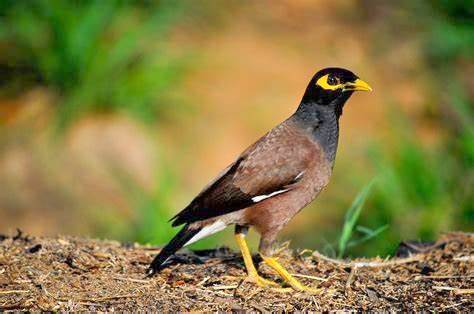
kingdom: Animalia
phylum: Chordata
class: Aves
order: Passeriformes
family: Sturnidae
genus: Acridotheres
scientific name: Acridotheres tristis
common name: Common myna
